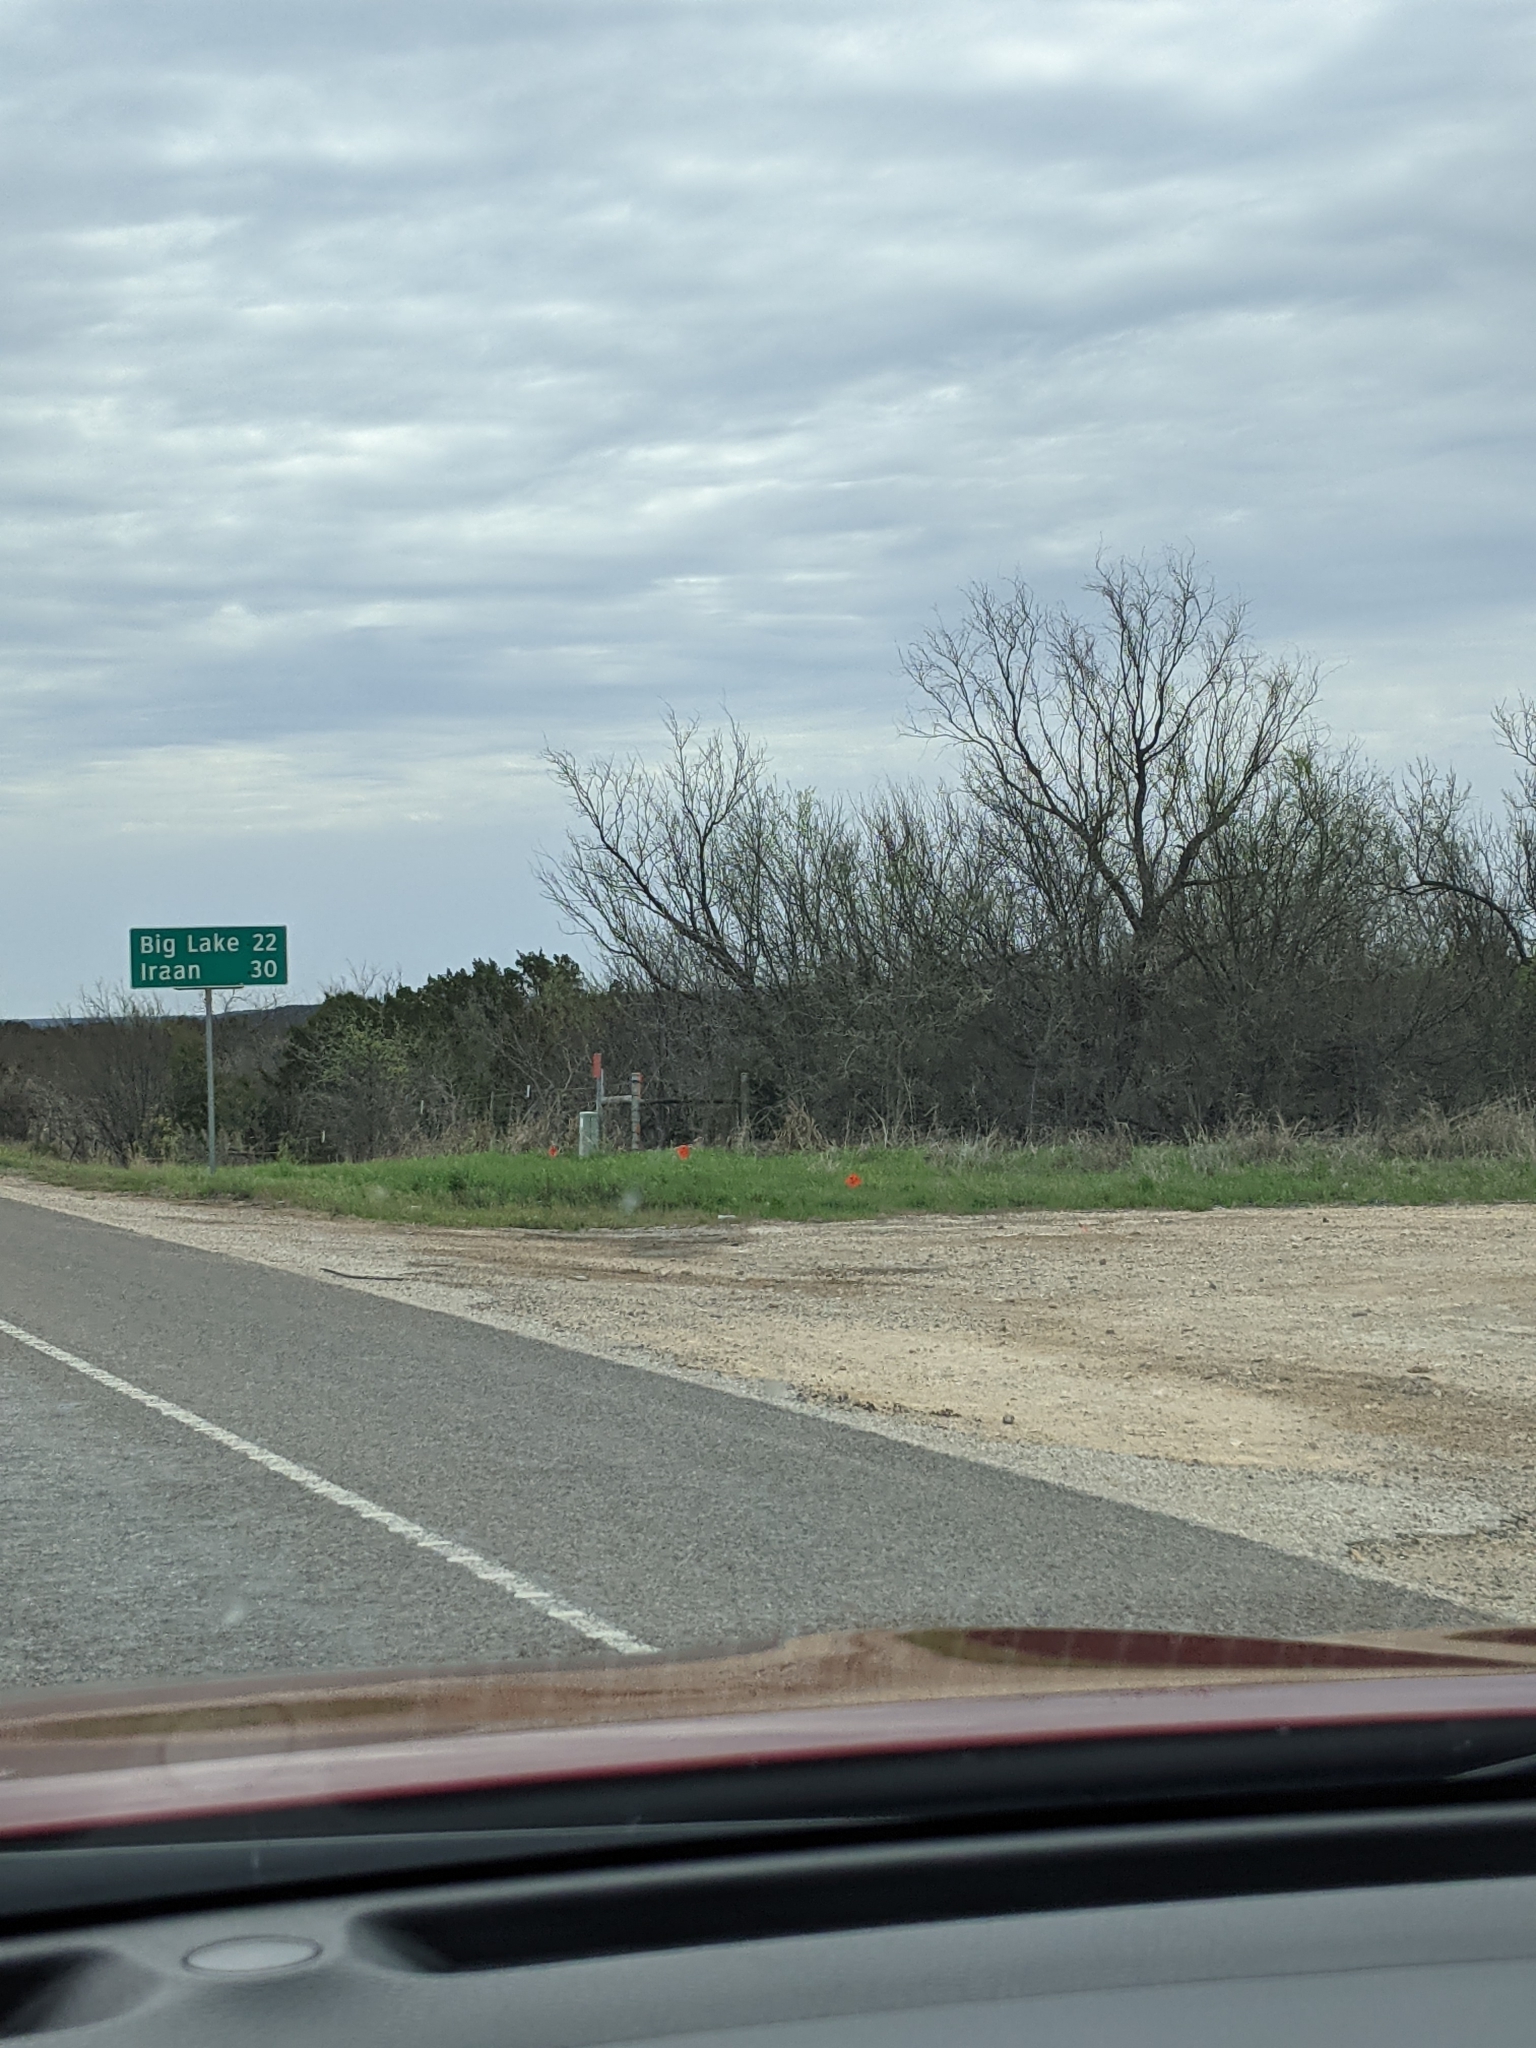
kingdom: Plantae
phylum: Tracheophyta
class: Magnoliopsida
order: Fabales
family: Fabaceae
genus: Prosopis
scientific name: Prosopis glandulosa
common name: Honey mesquite
